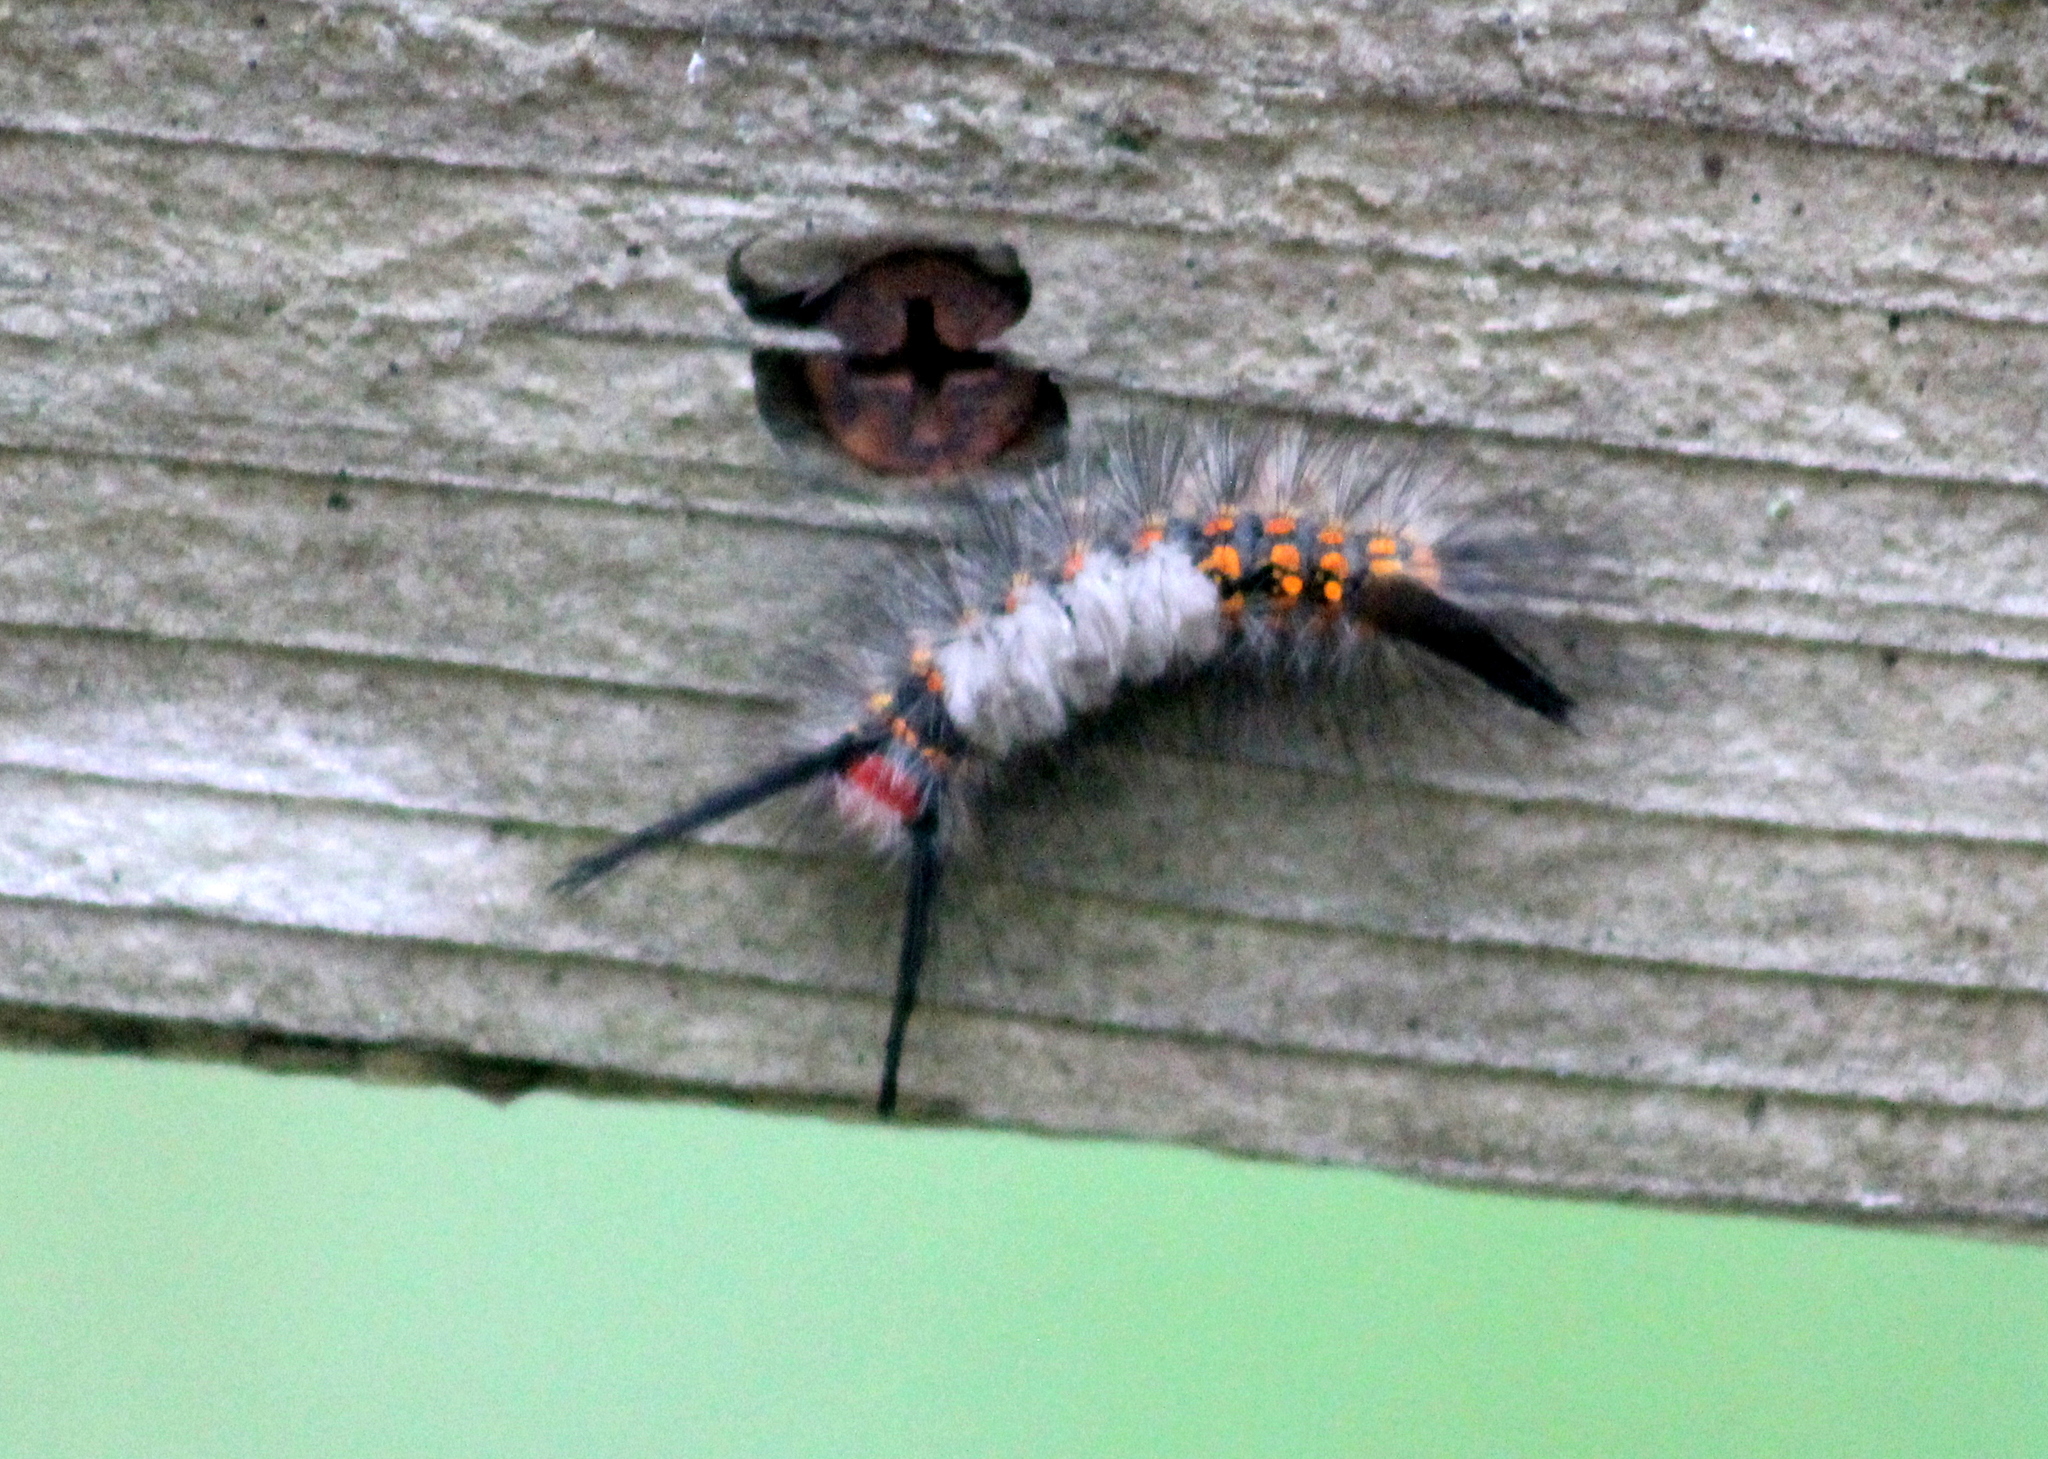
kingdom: Animalia
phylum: Arthropoda
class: Insecta
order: Lepidoptera
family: Erebidae
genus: Orgyia
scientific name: Orgyia detrita
